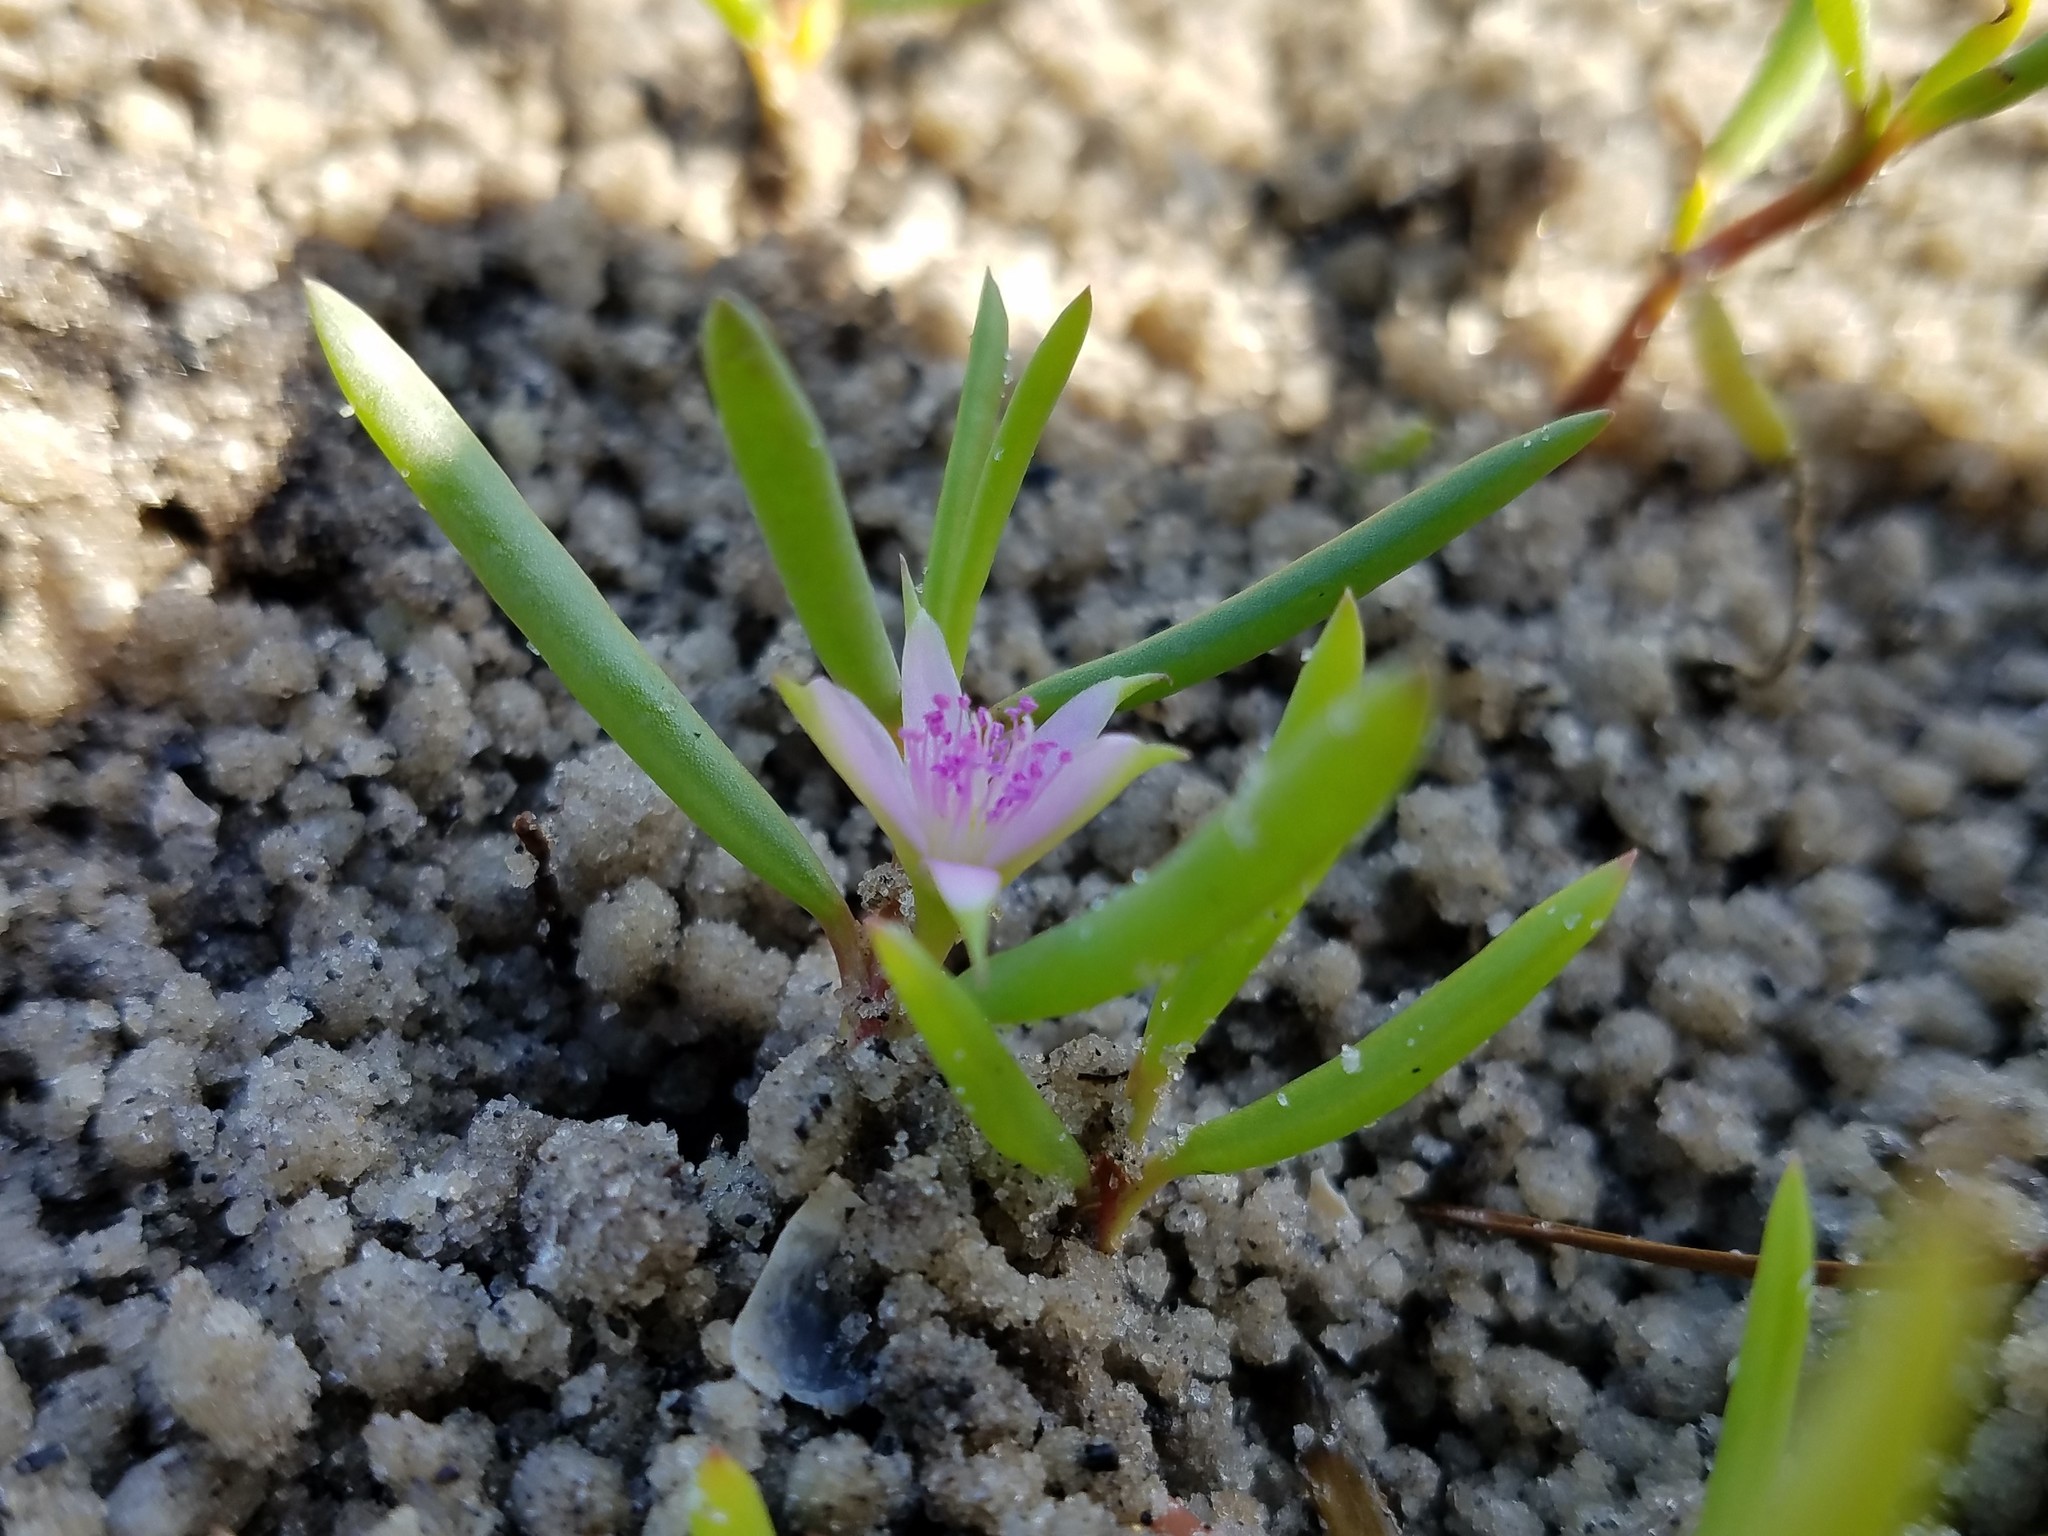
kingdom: Plantae
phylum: Tracheophyta
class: Magnoliopsida
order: Caryophyllales
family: Aizoaceae
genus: Sesuvium
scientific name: Sesuvium portulacastrum
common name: Sea-purslane
